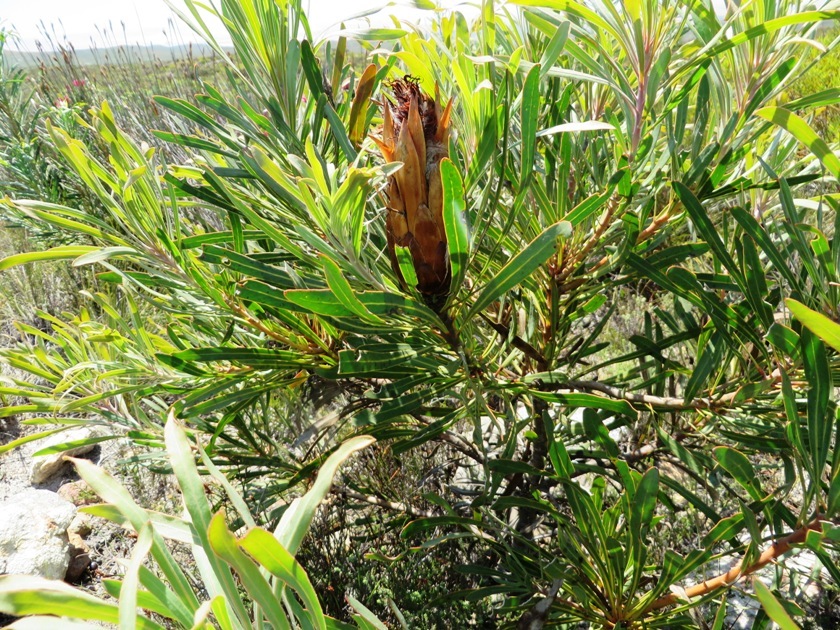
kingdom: Plantae
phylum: Tracheophyta
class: Magnoliopsida
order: Proteales
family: Proteaceae
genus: Protea
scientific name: Protea longifolia
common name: Long-leaf sugarbush
